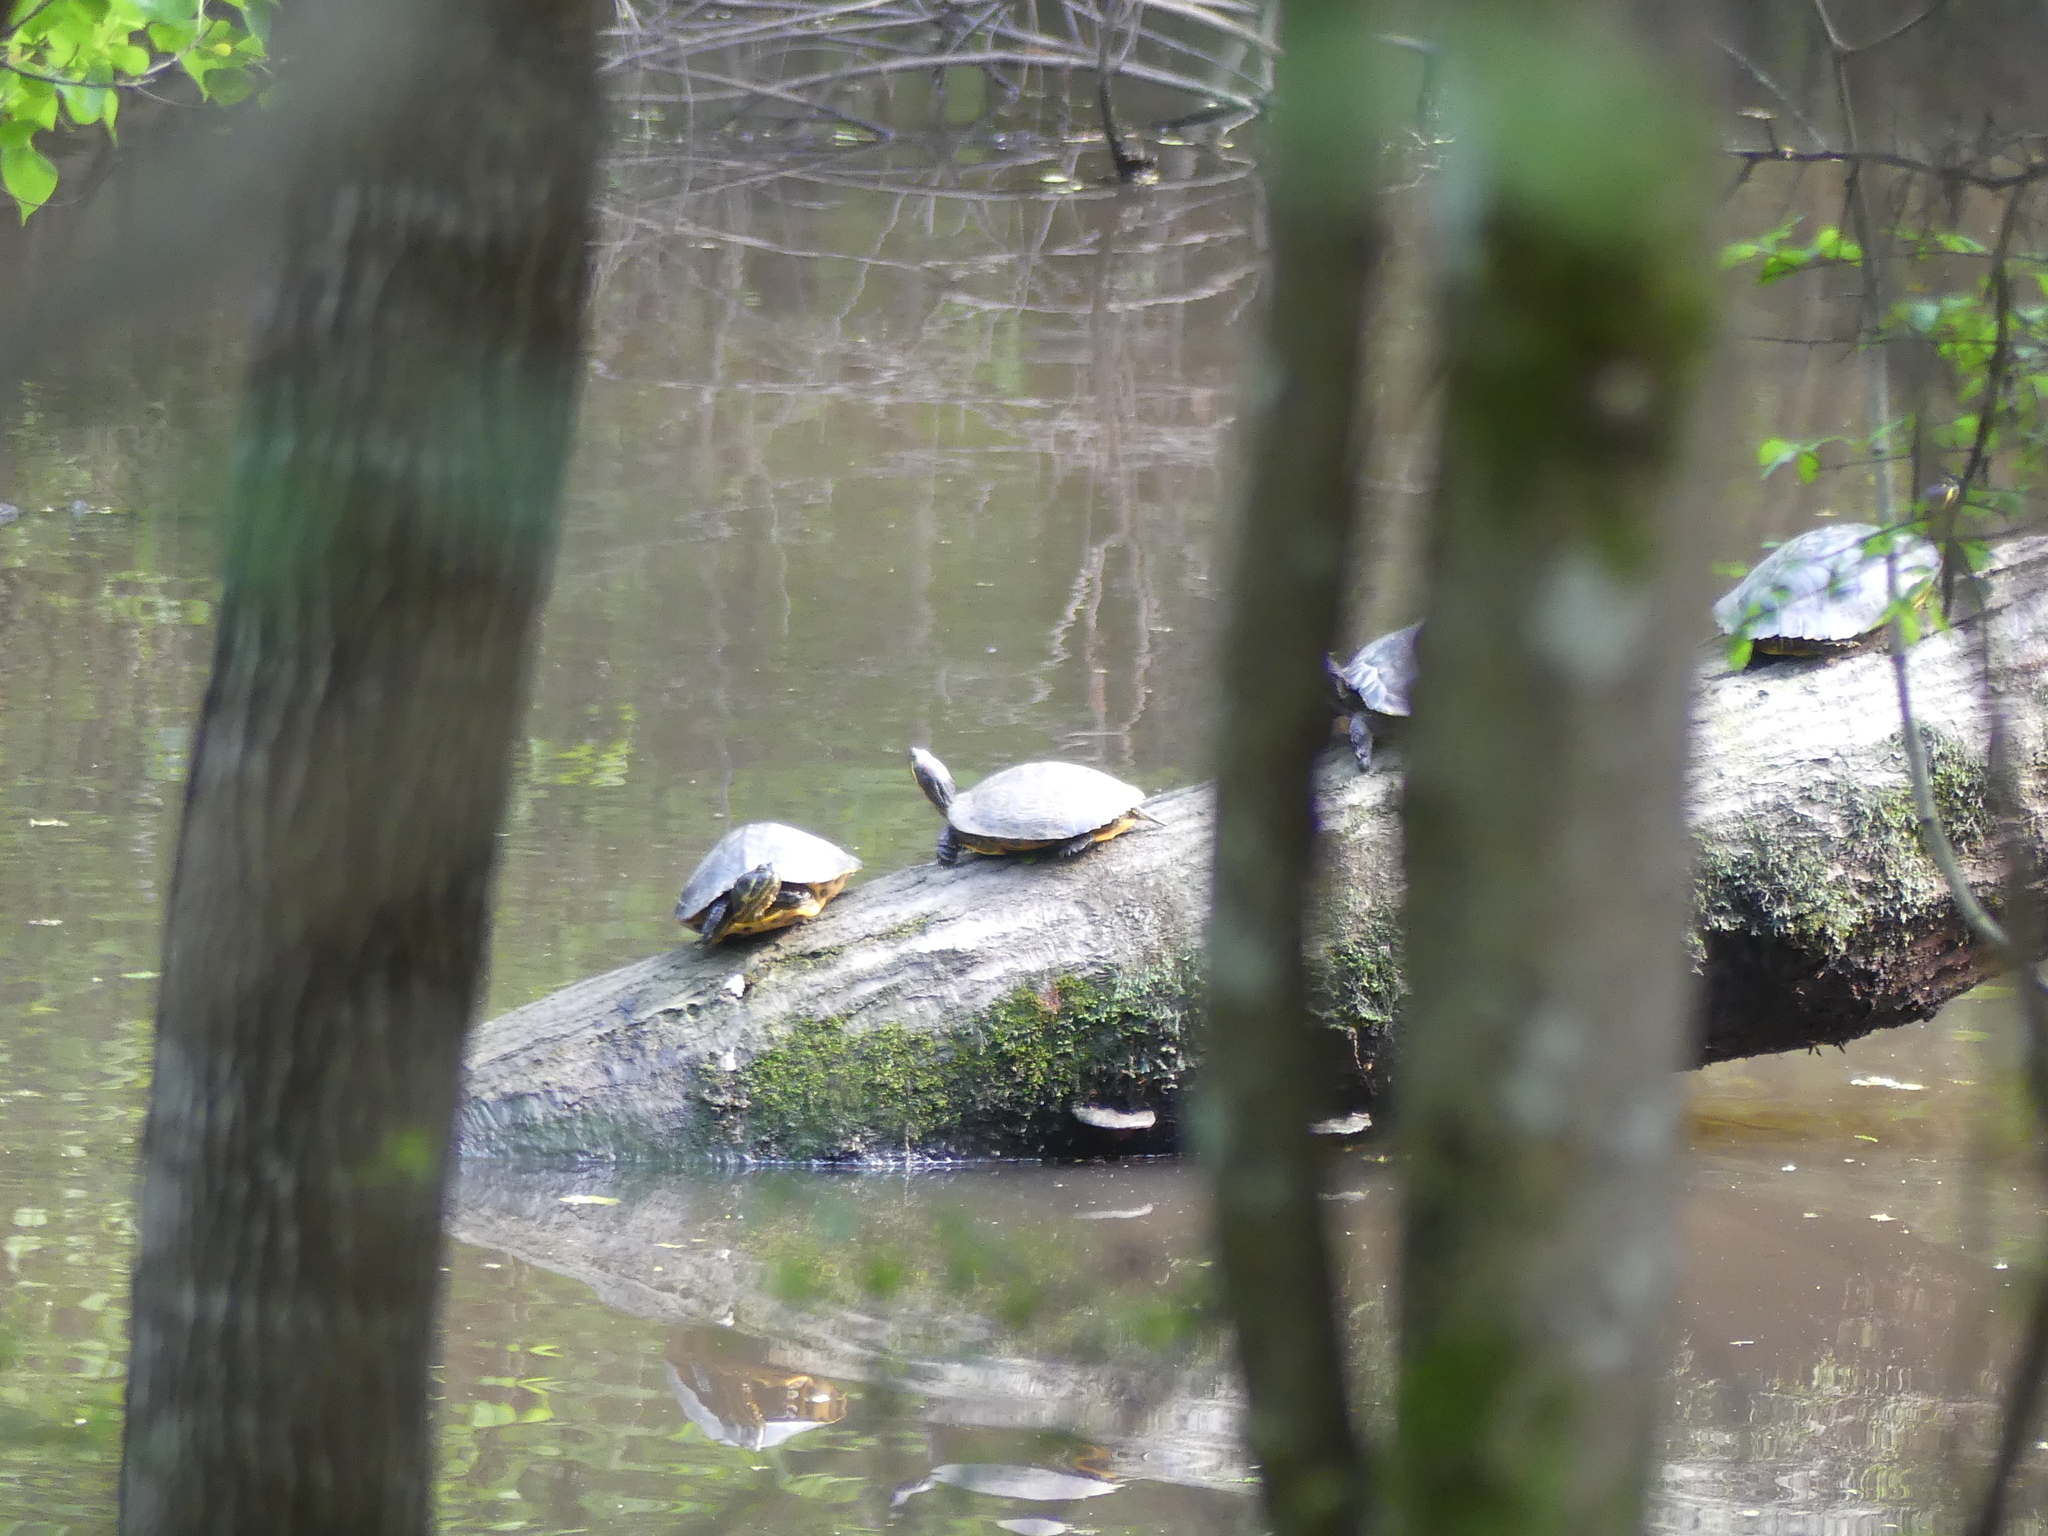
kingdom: Animalia
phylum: Chordata
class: Testudines
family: Emydidae
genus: Pseudemys
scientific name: Pseudemys concinna
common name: Eastern river cooter
